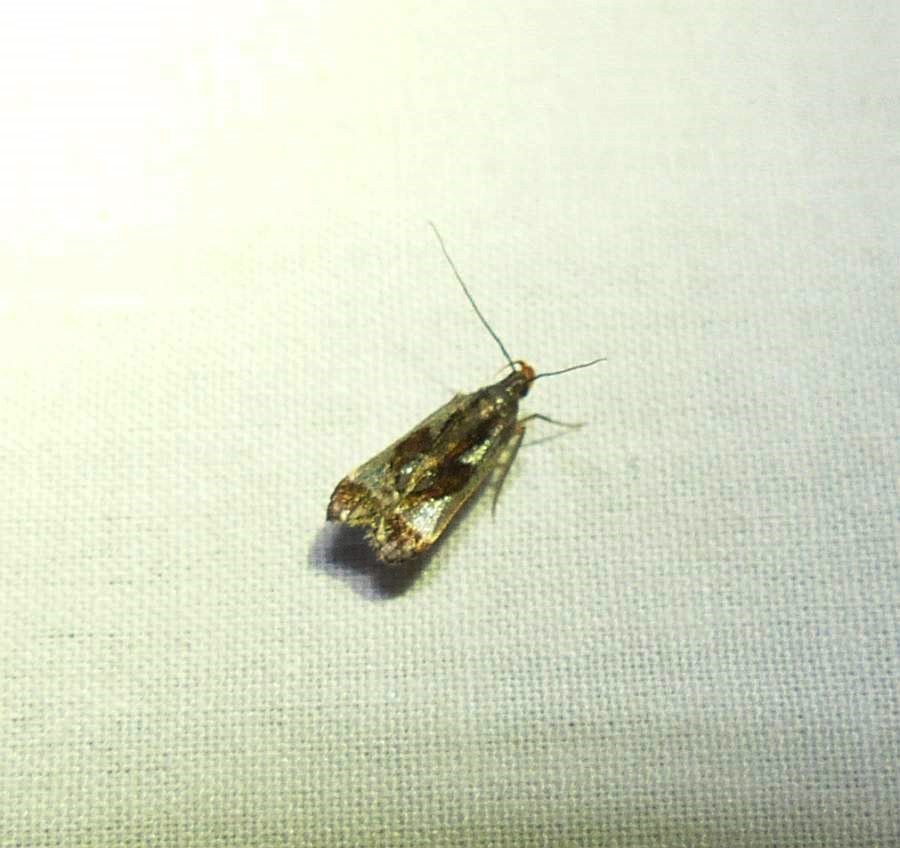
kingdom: Animalia
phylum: Arthropoda
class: Insecta
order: Lepidoptera
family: Gelechiidae
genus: Dichomeris
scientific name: Dichomeris ochripalpella
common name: Shining dichomeris moth
